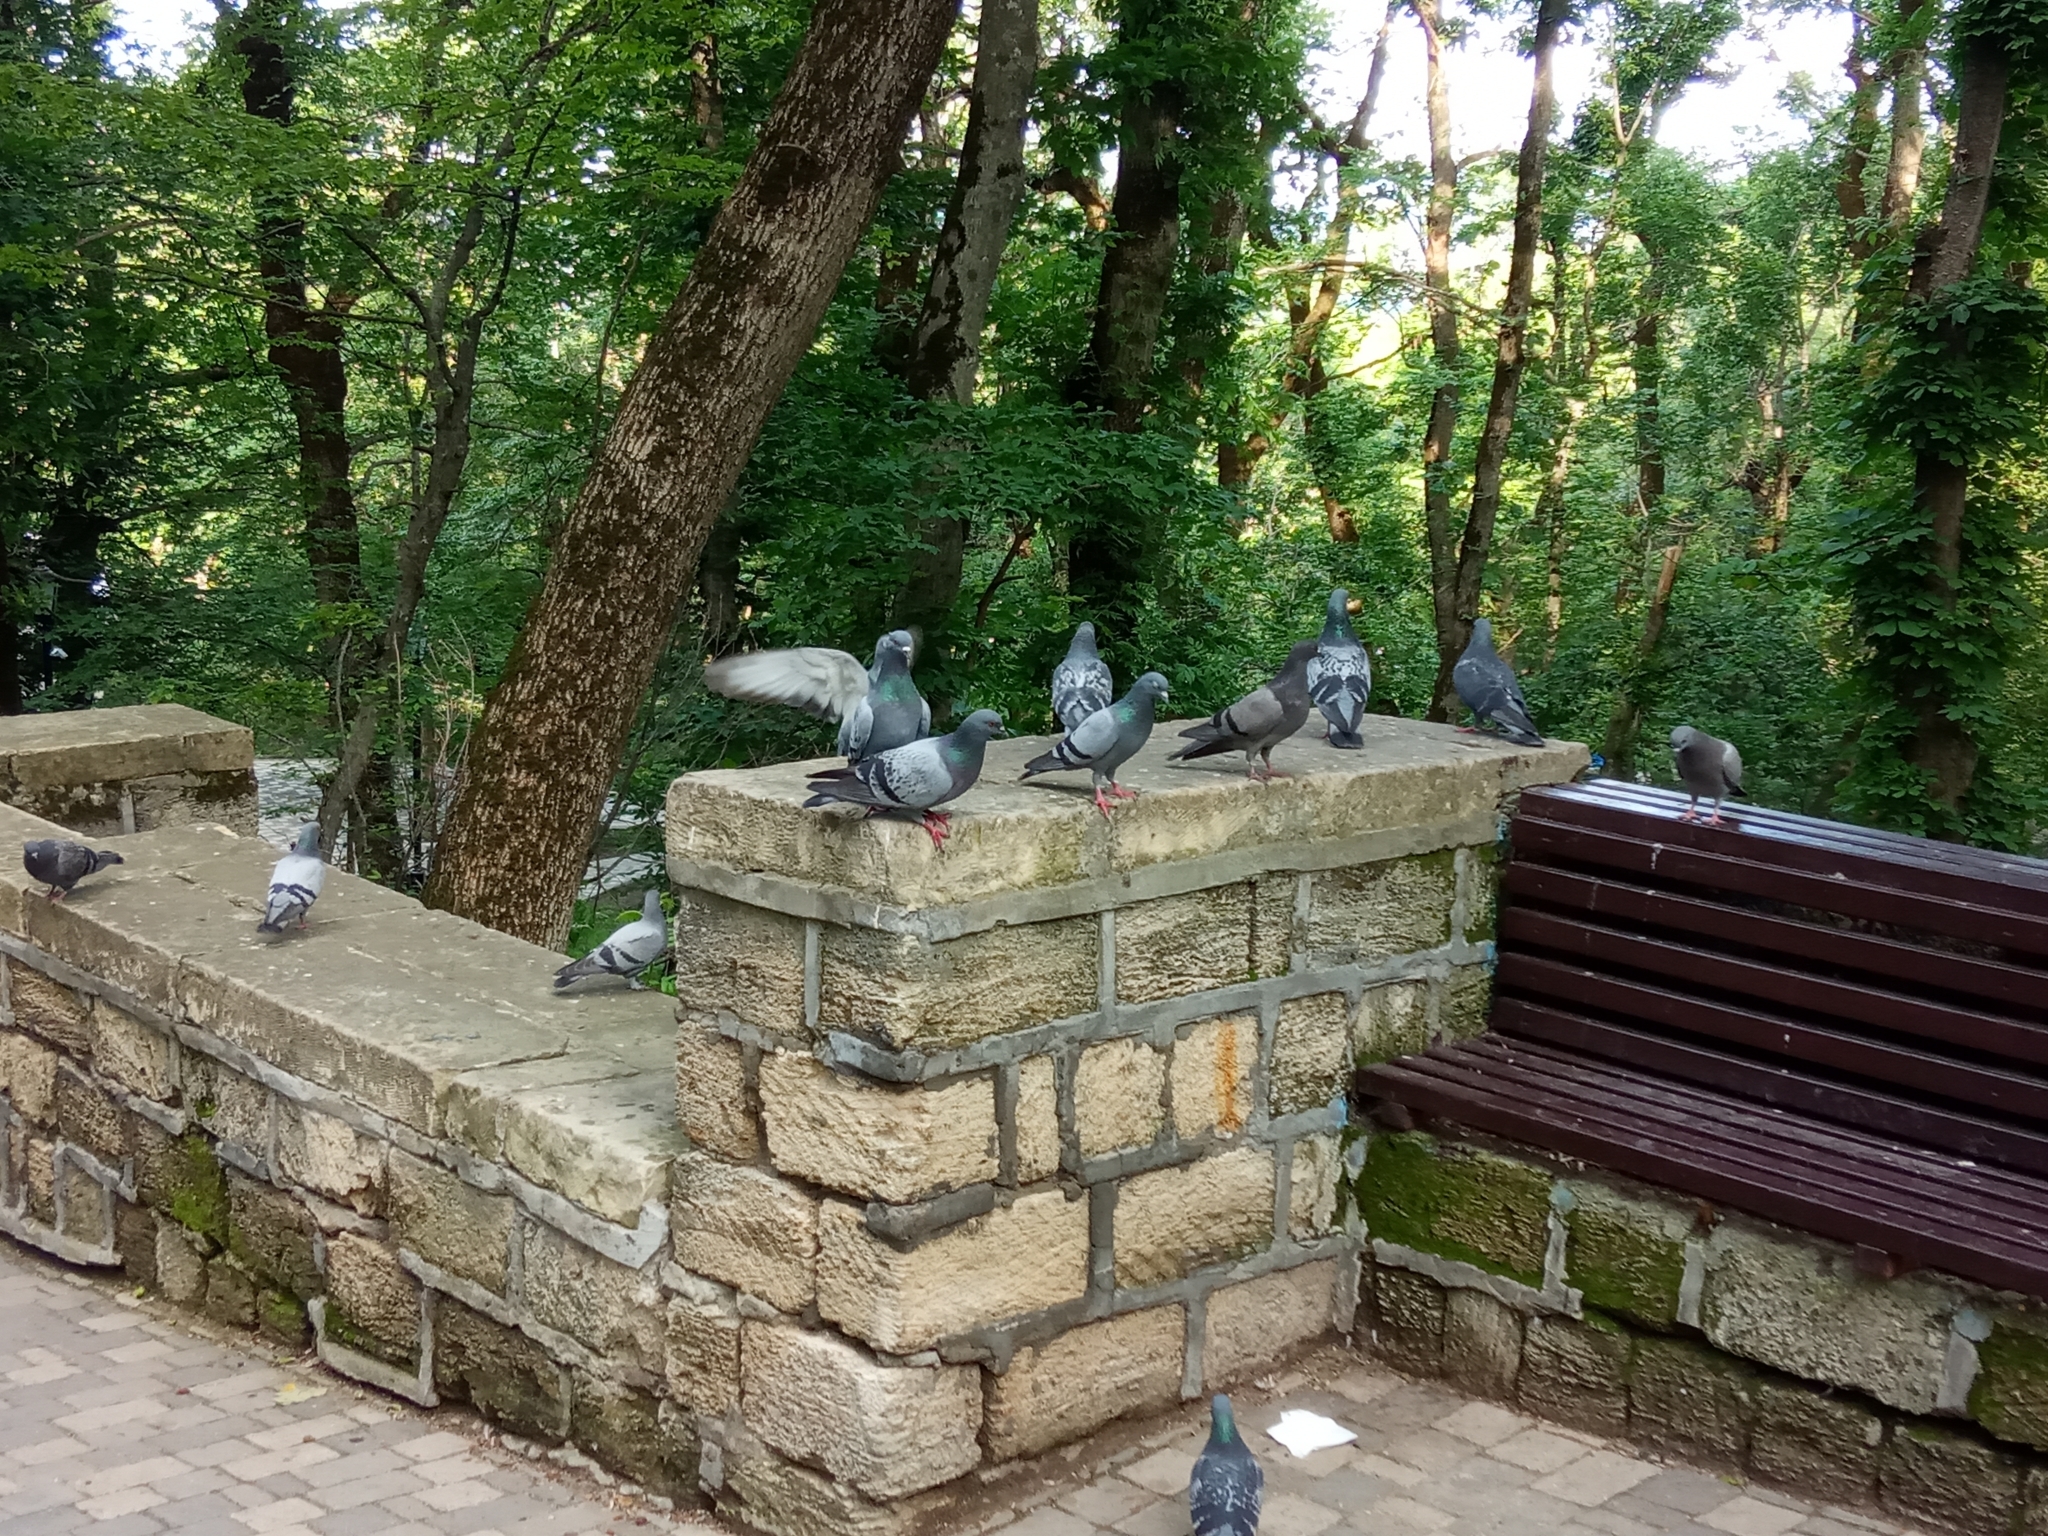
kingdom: Animalia
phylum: Chordata
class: Aves
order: Columbiformes
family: Columbidae
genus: Columba
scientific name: Columba livia
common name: Rock pigeon
